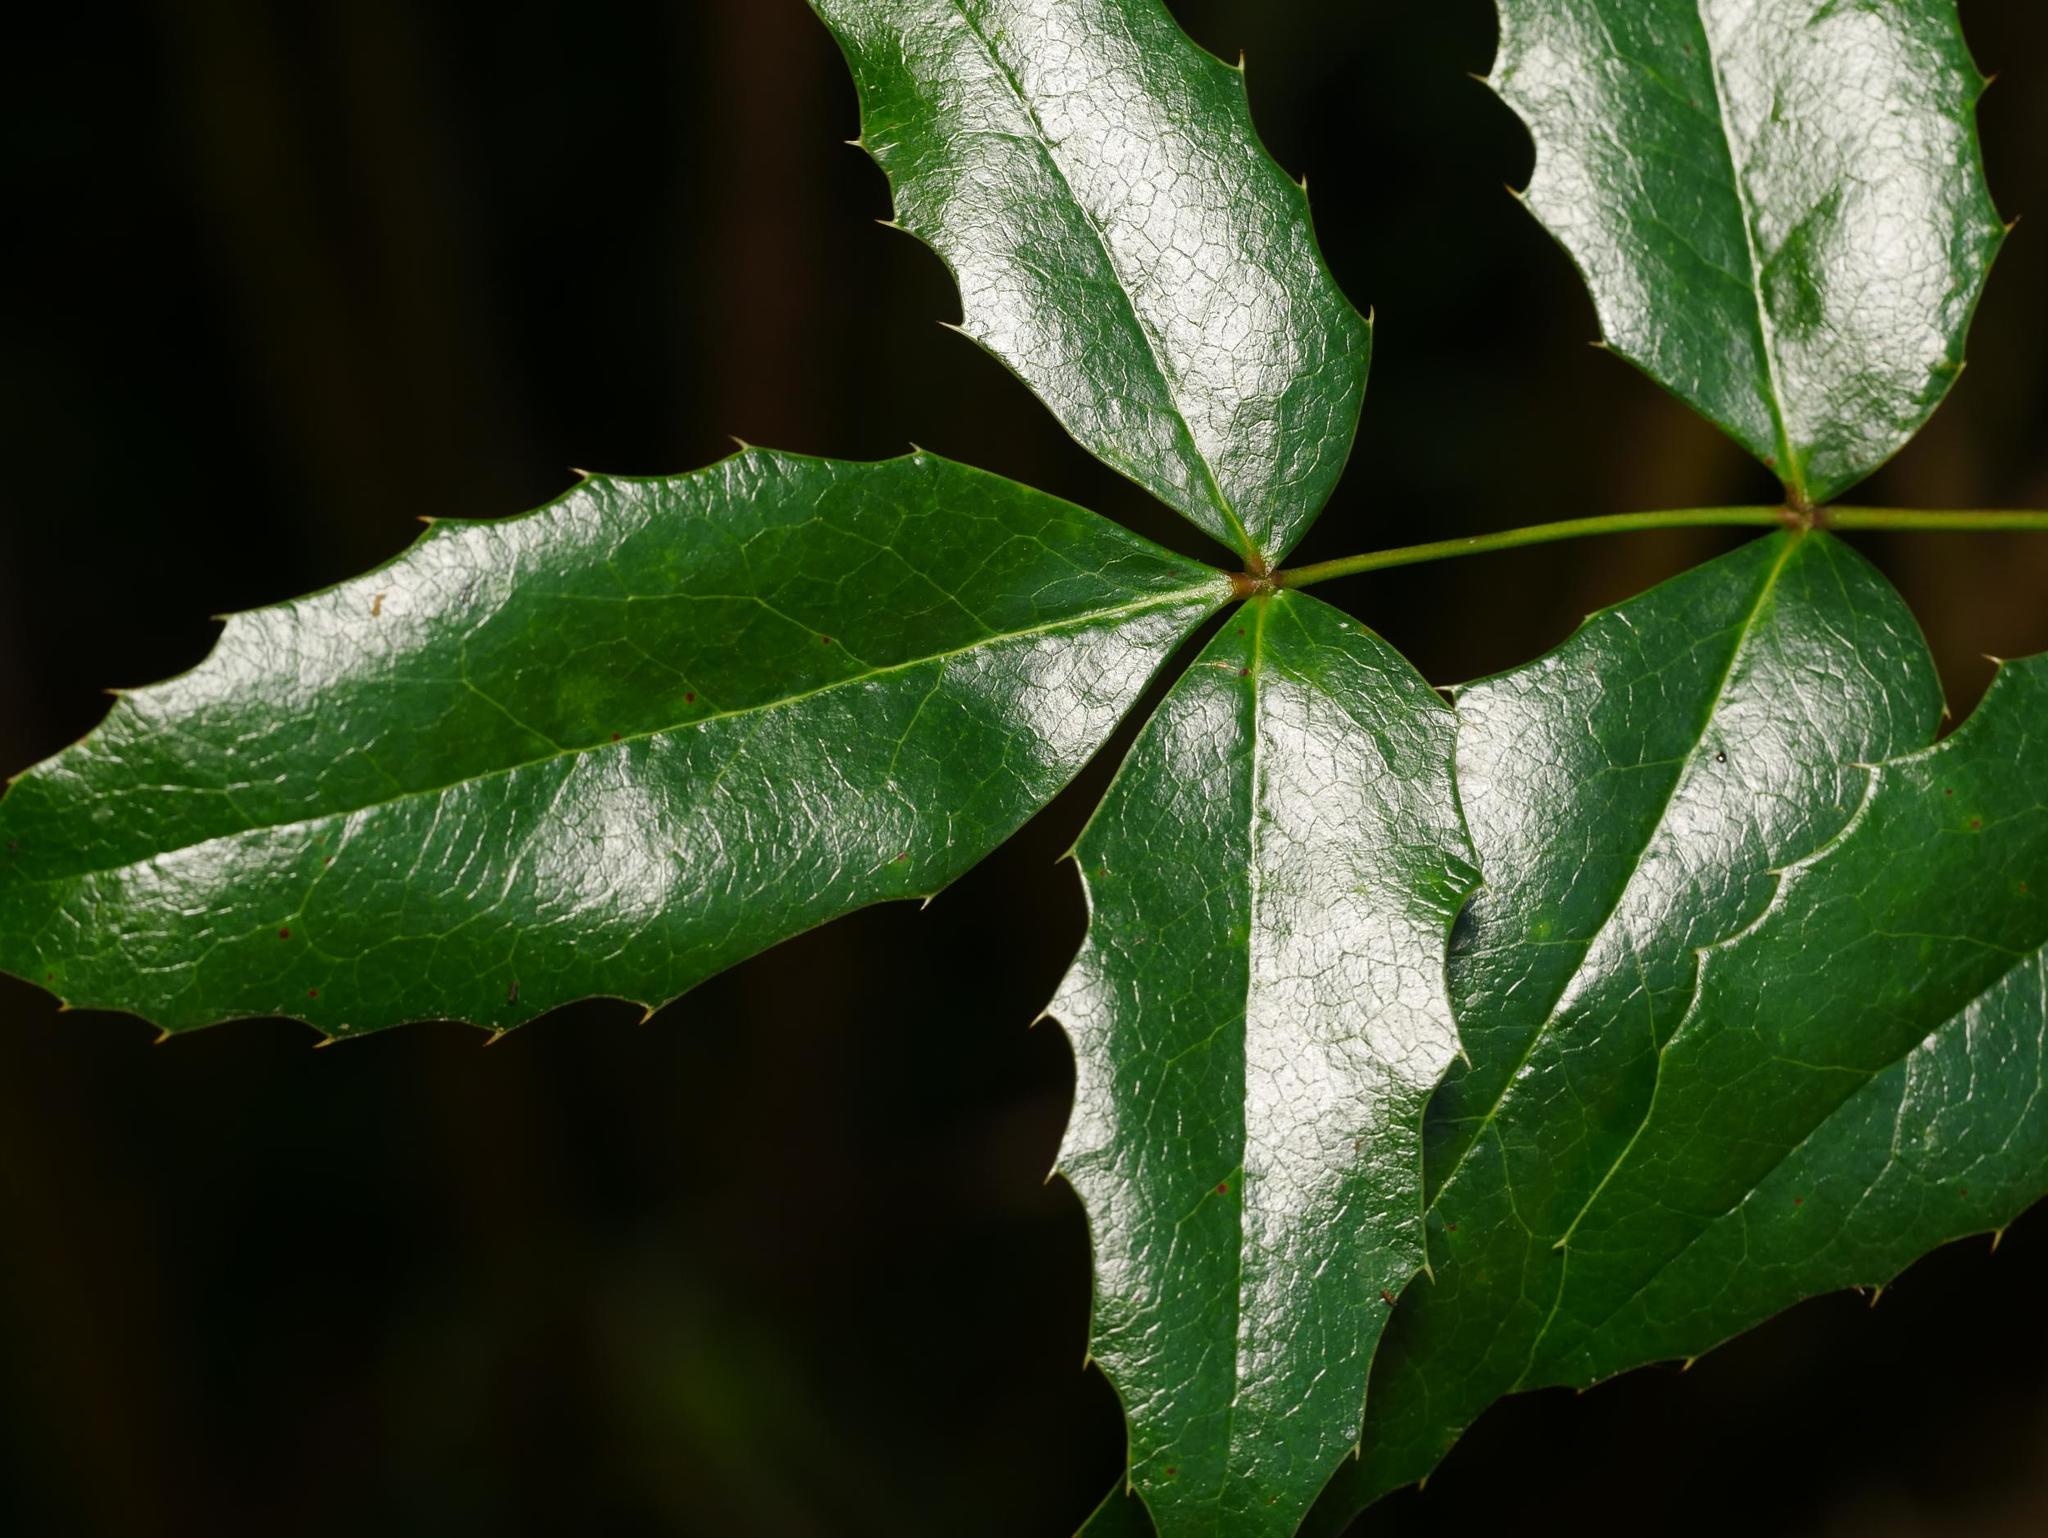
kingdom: Plantae
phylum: Tracheophyta
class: Magnoliopsida
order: Ranunculales
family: Berberidaceae
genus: Mahonia
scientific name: Mahonia aquifolium
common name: Oregon-grape
